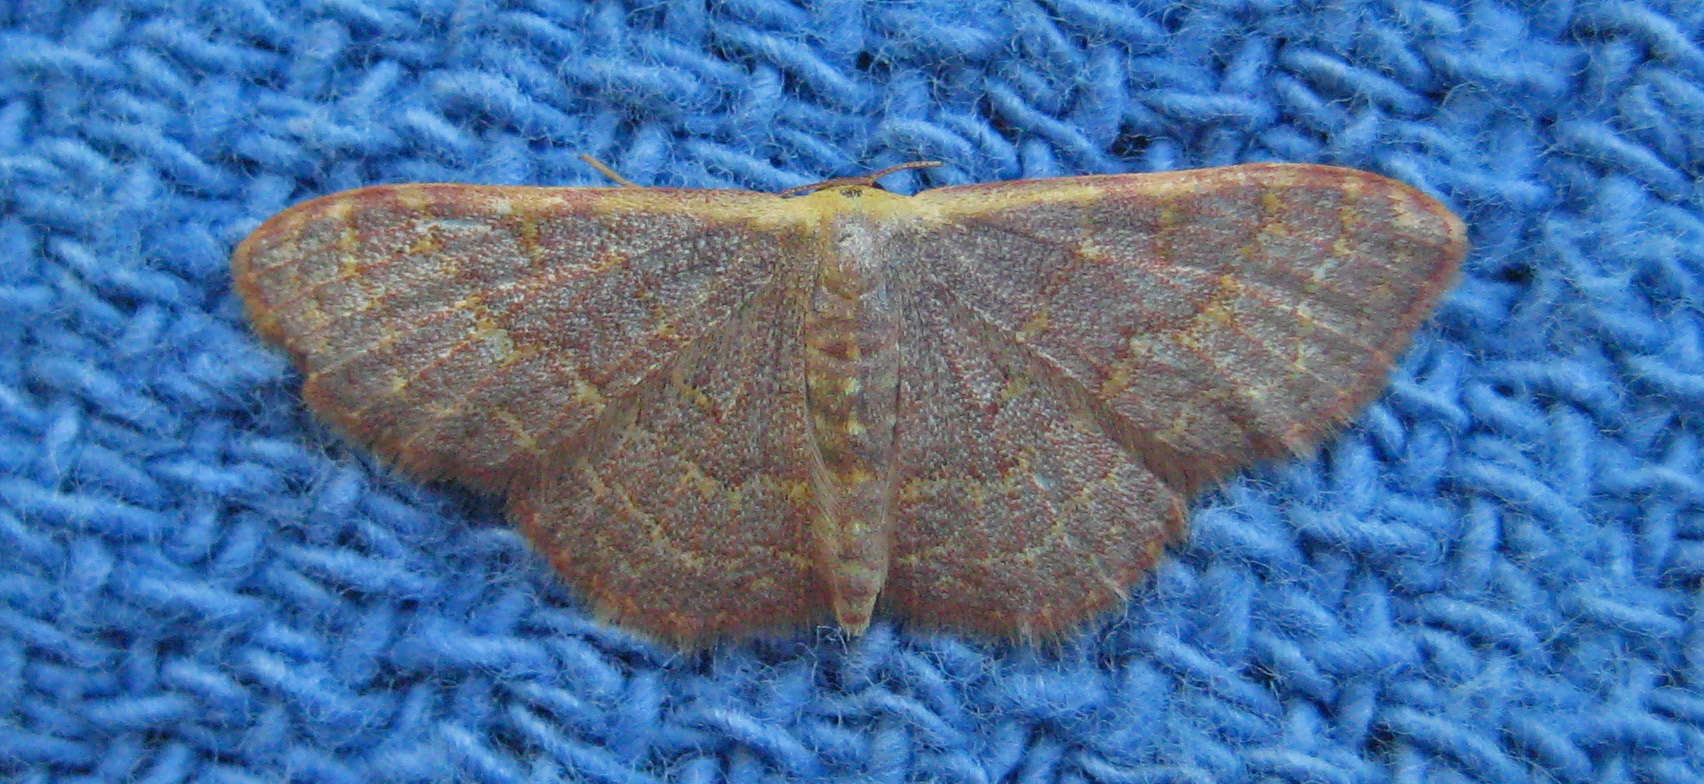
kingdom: Animalia
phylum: Arthropoda
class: Insecta
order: Lepidoptera
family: Geometridae
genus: Leptostales
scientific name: Leptostales pannaria
